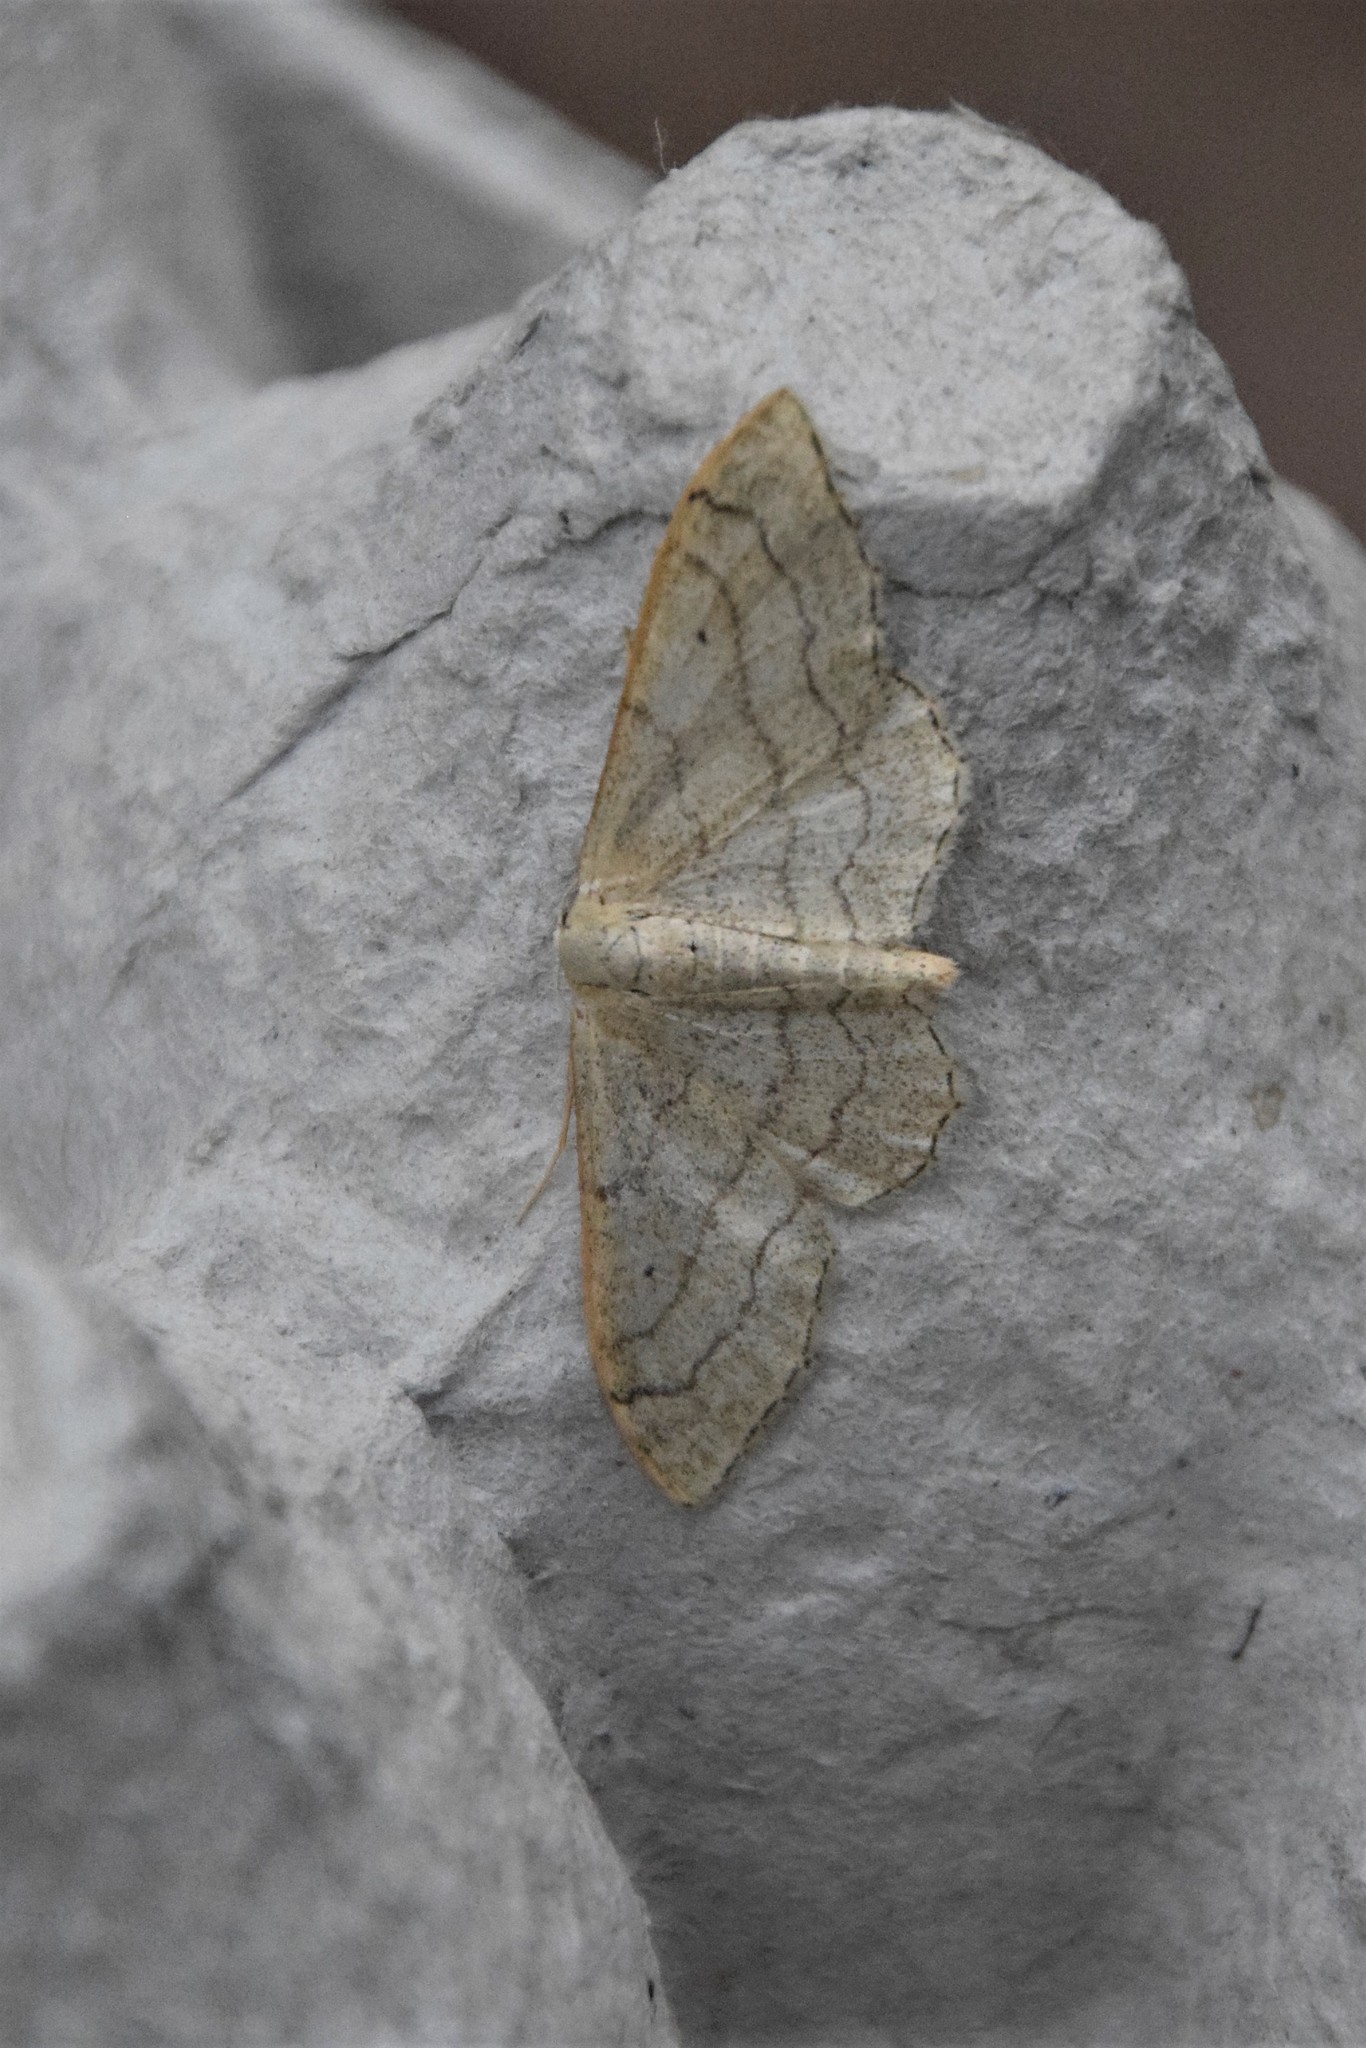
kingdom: Animalia
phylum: Arthropoda
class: Insecta
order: Lepidoptera
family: Geometridae
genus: Idaea
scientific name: Idaea aversata
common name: Riband wave
